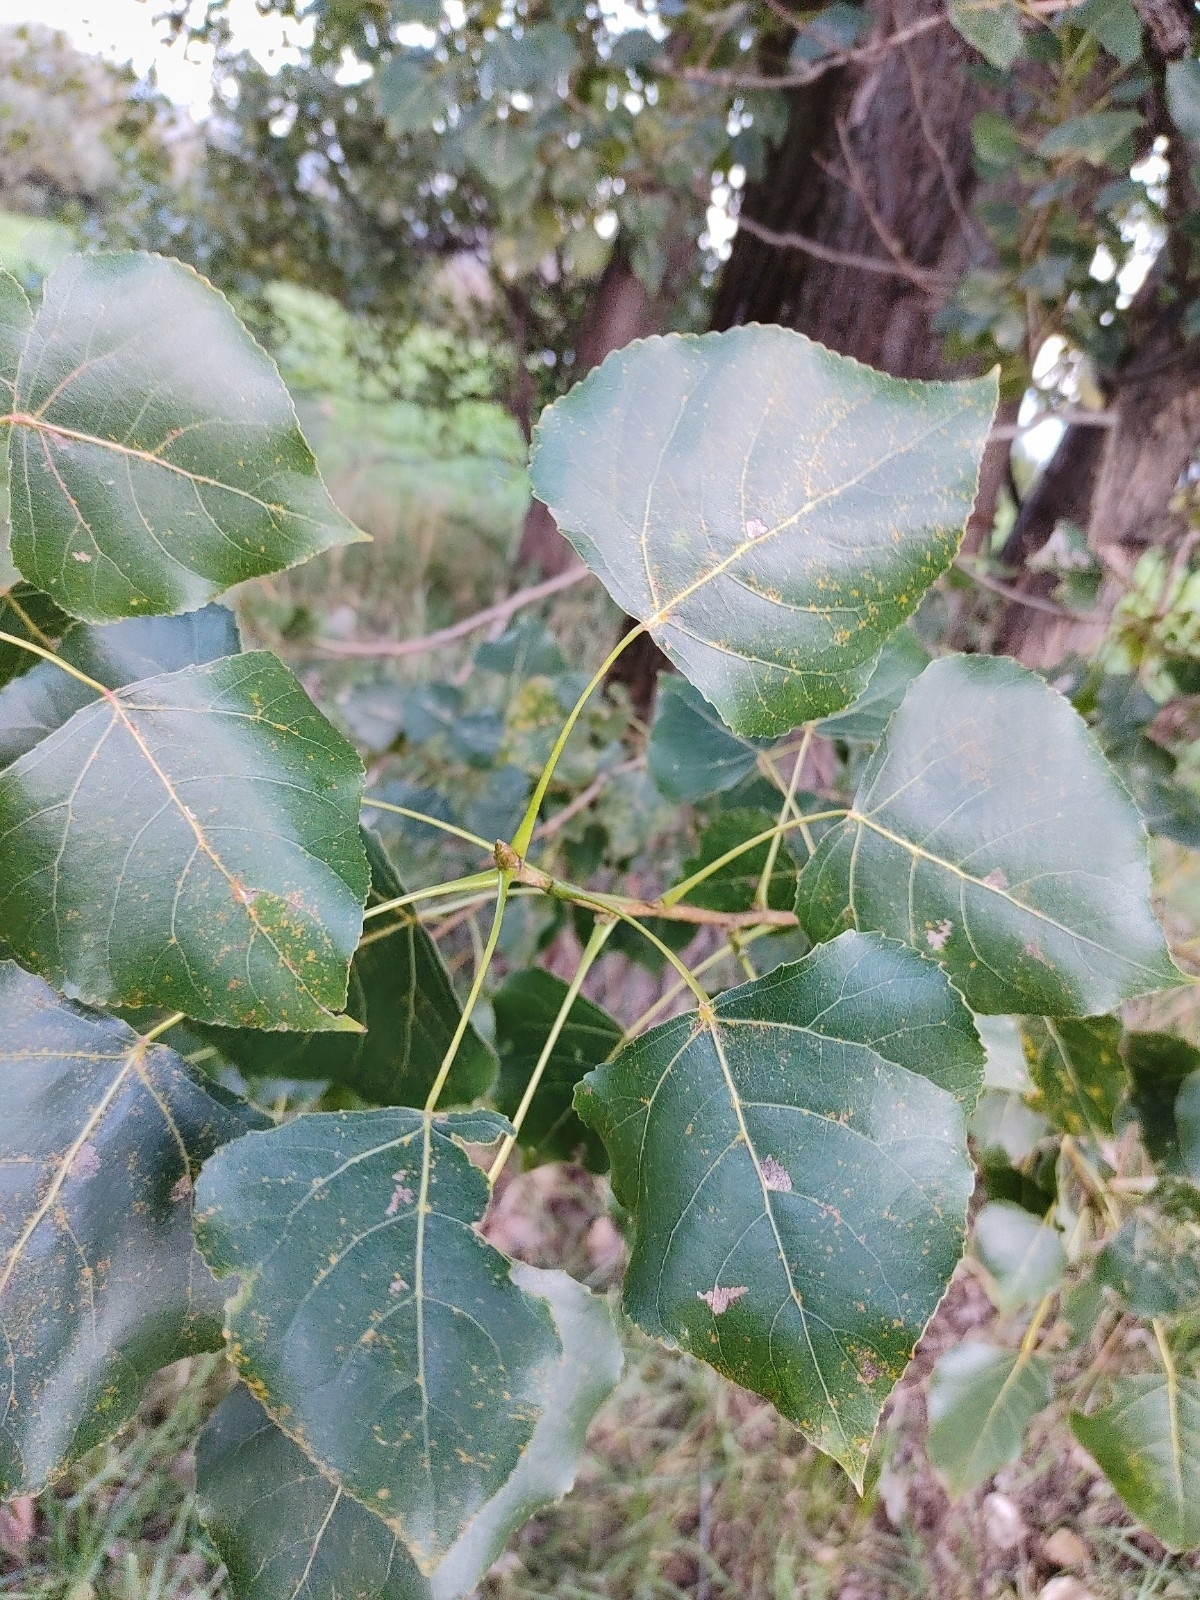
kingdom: Plantae
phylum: Tracheophyta
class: Magnoliopsida
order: Malpighiales
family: Salicaceae
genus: Populus
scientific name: Populus canadensis
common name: Carolina poplar
